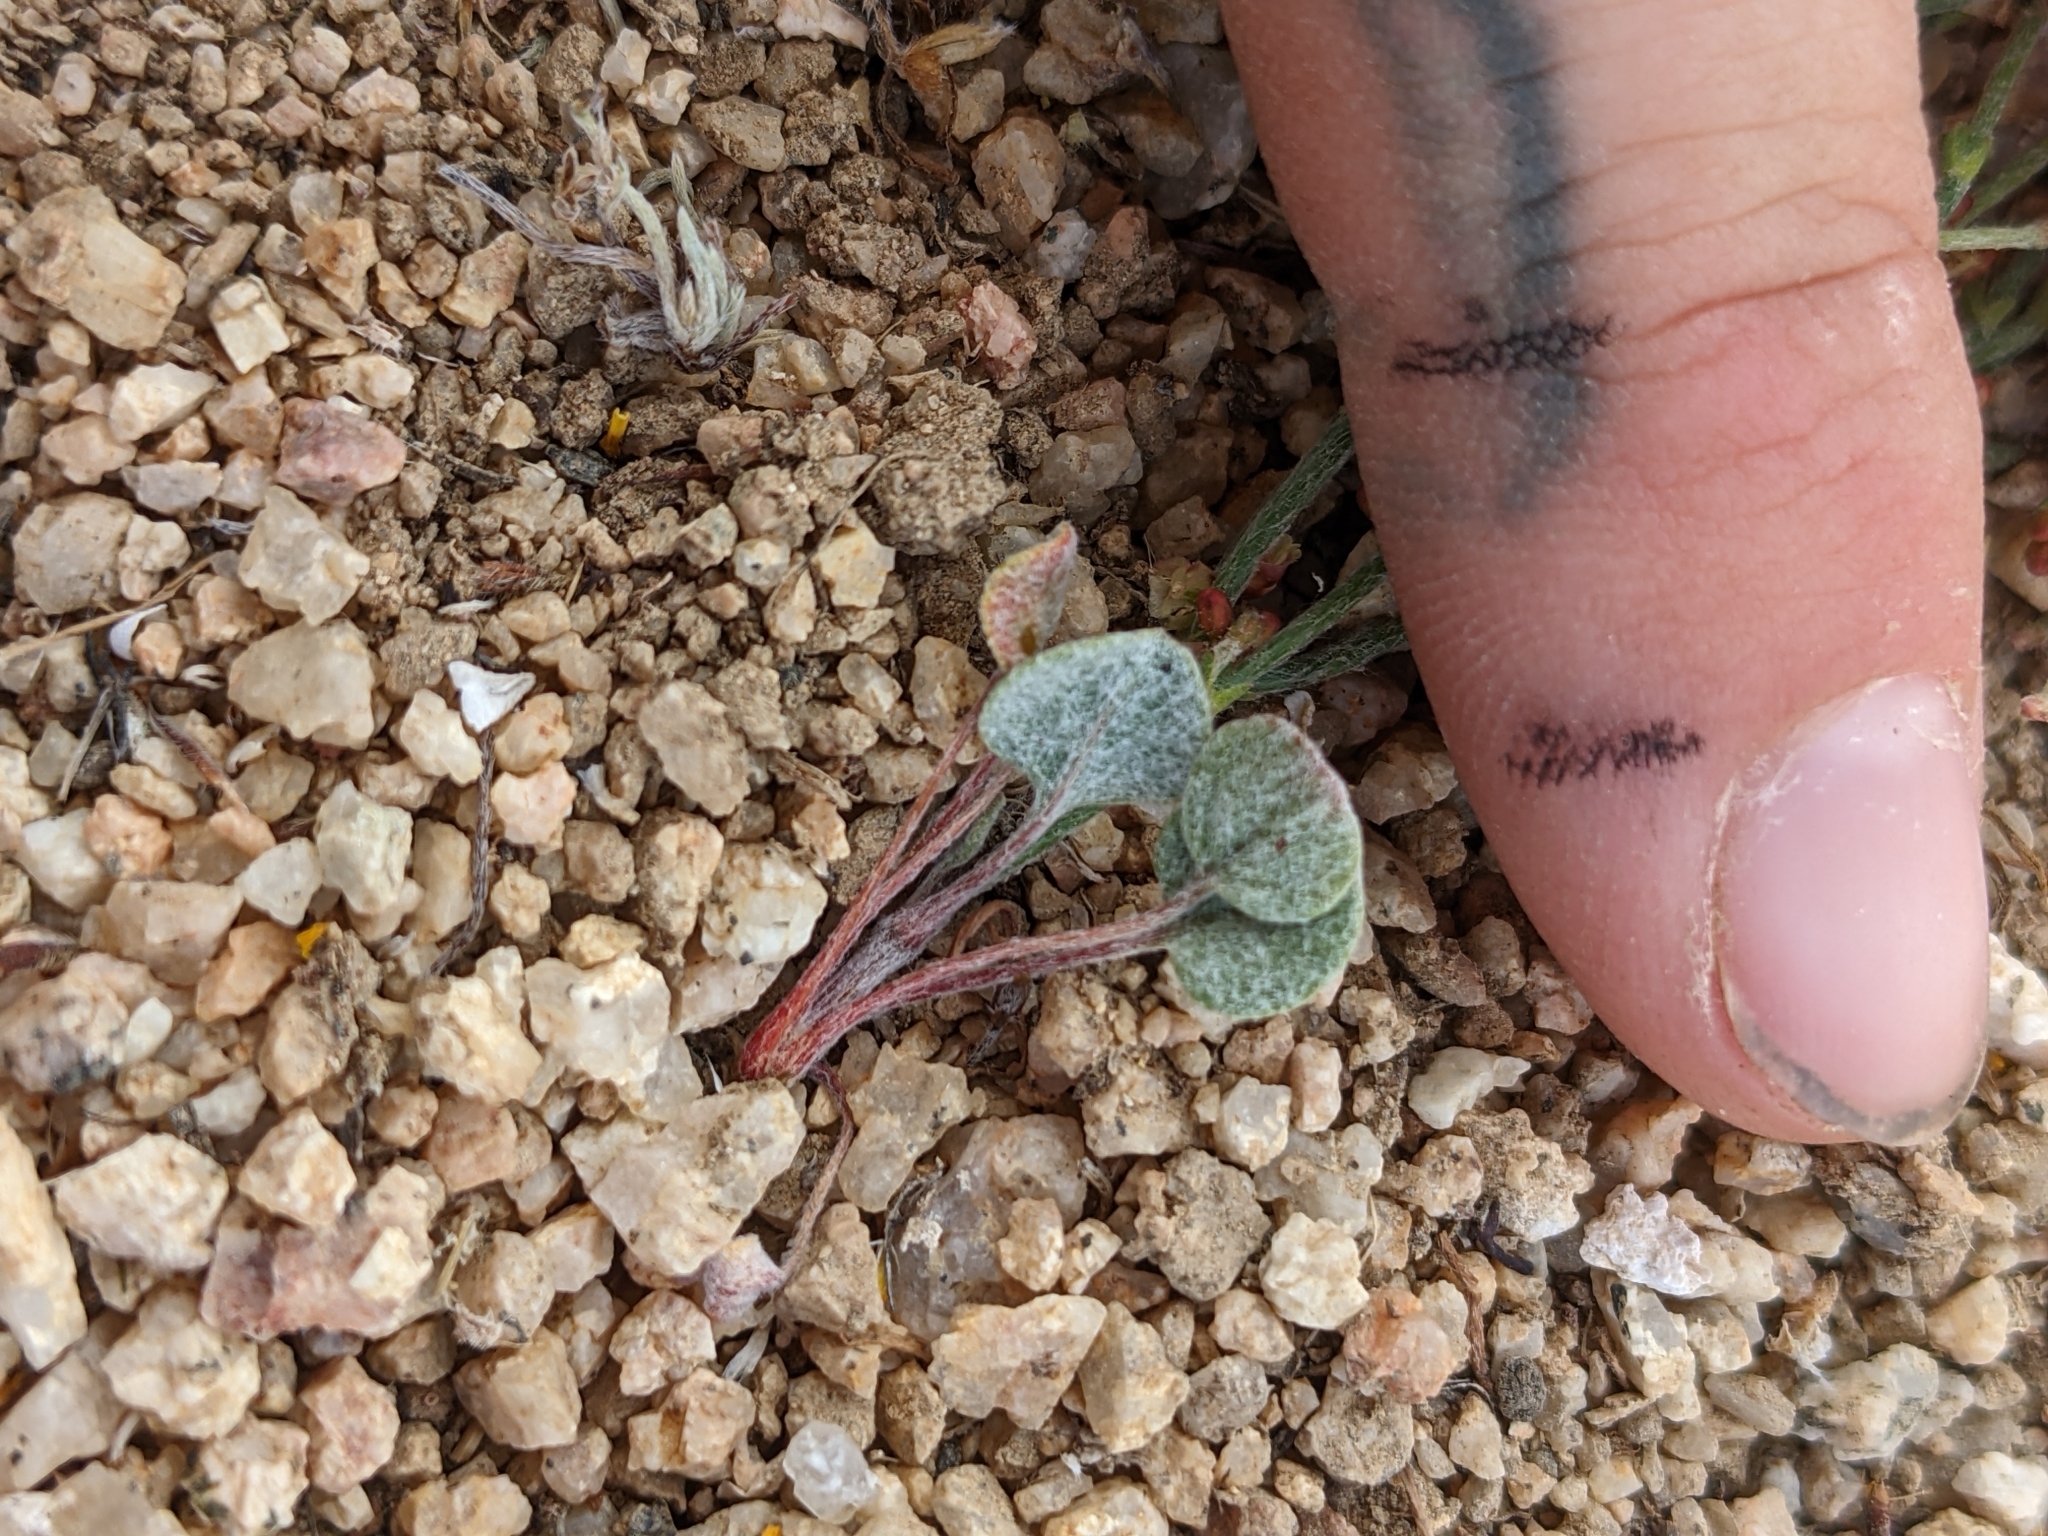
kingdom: Plantae
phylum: Tracheophyta
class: Magnoliopsida
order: Caryophyllales
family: Polygonaceae
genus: Eriogonum
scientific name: Eriogonum nidularium
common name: Bird's-nest wild buckwheat
